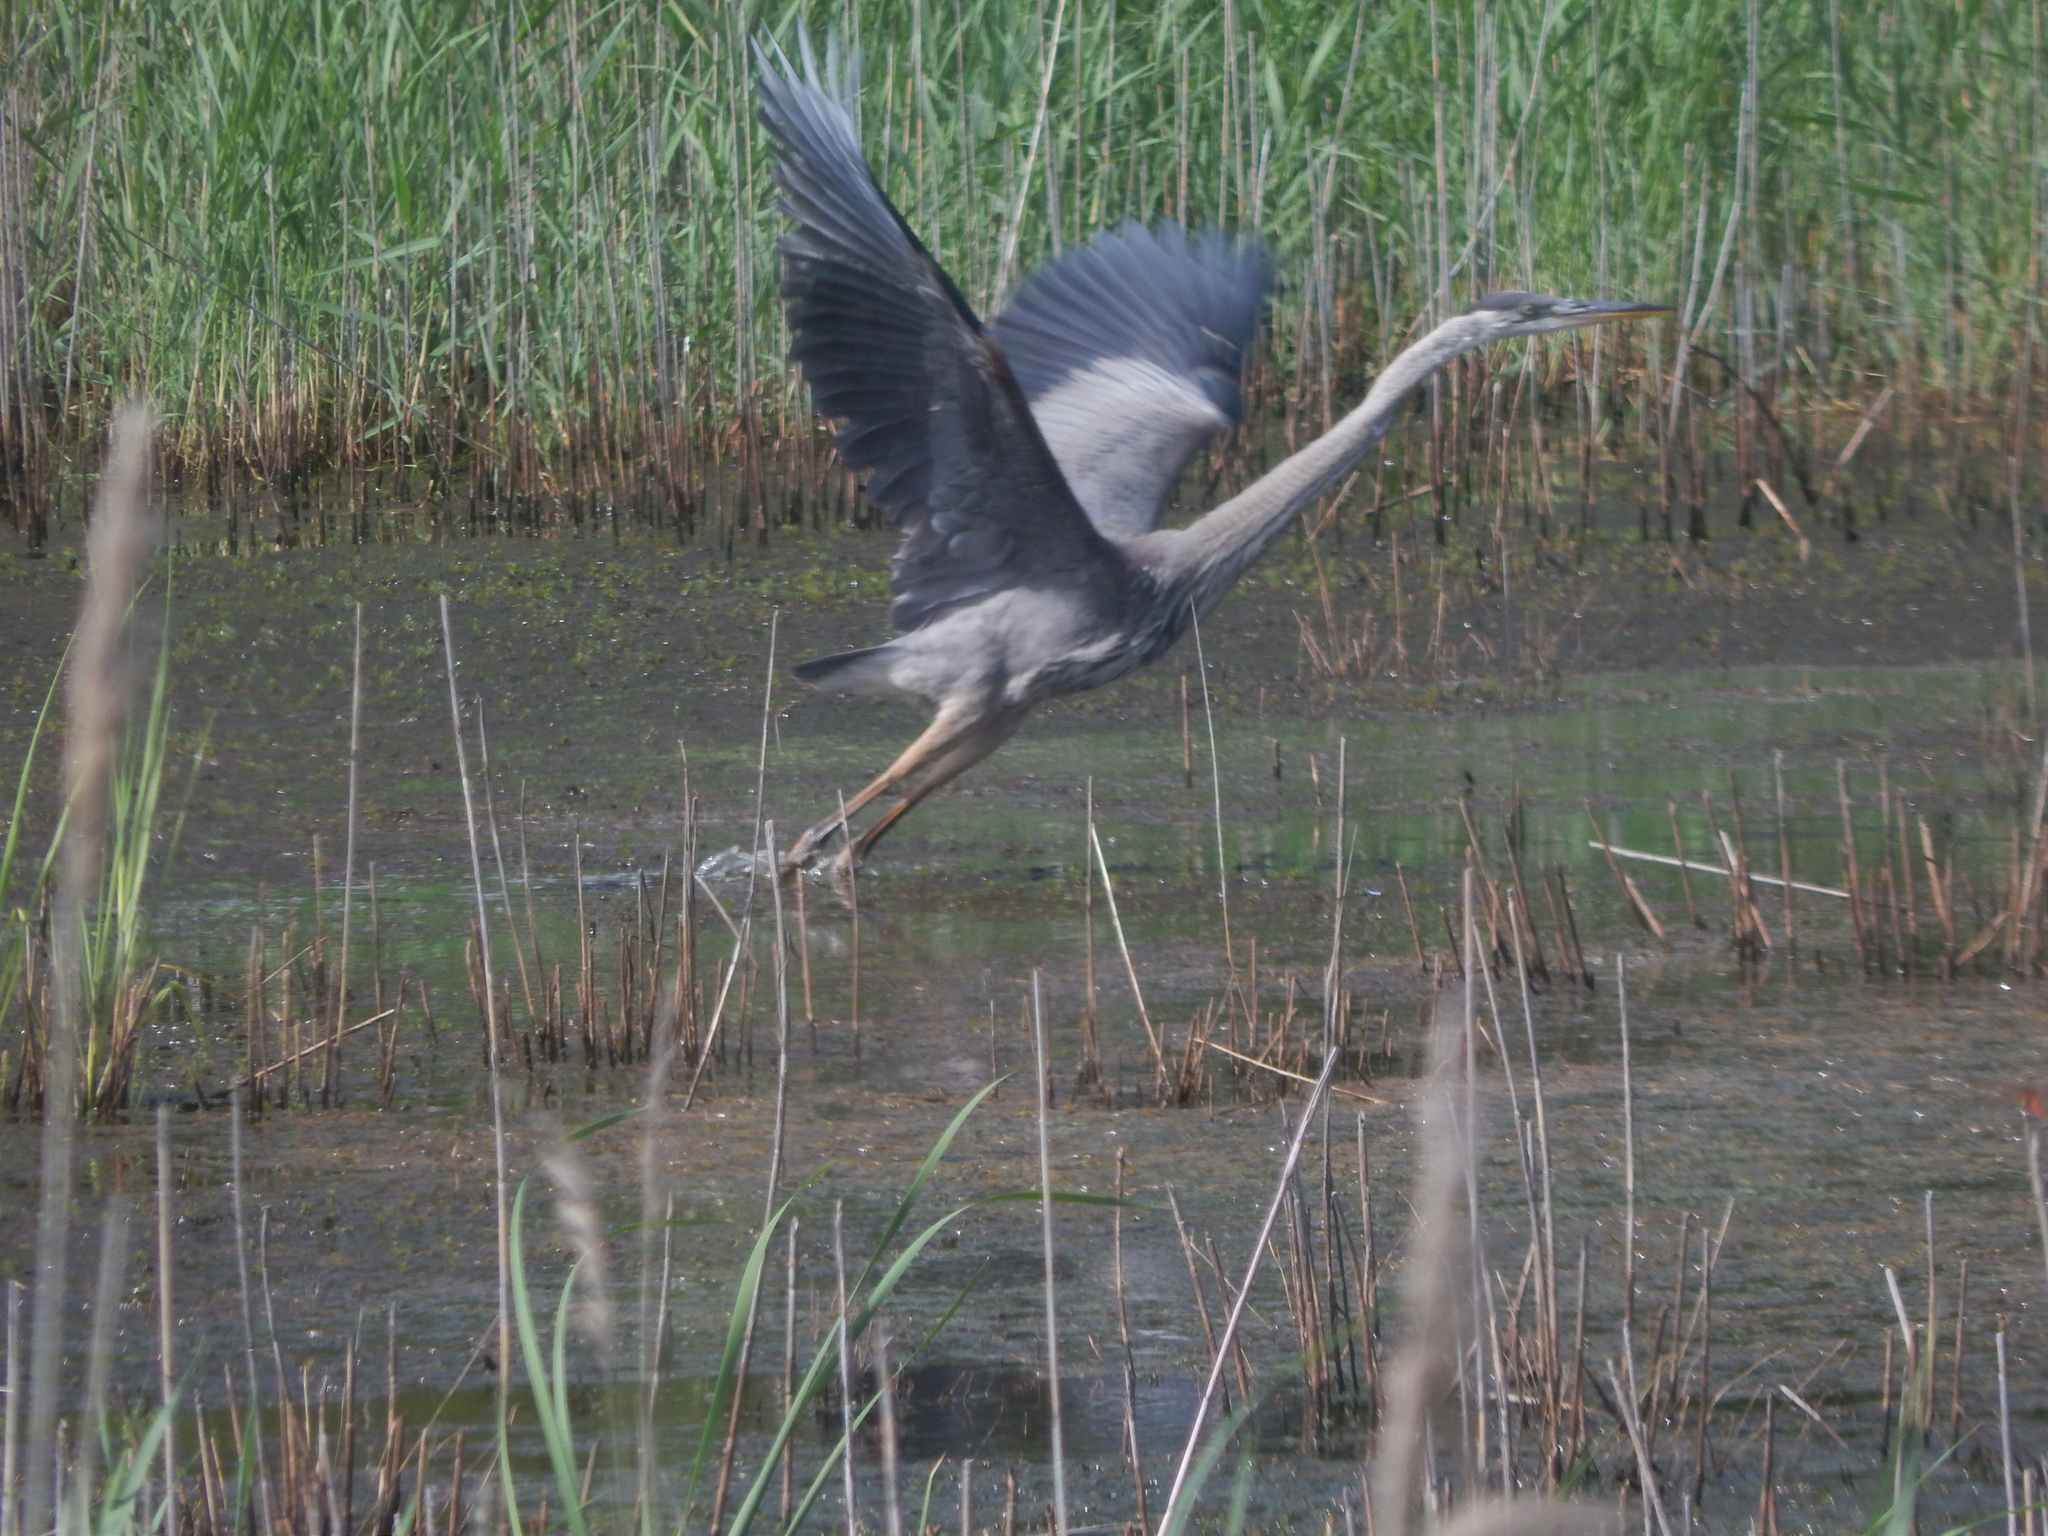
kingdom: Animalia
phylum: Chordata
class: Aves
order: Pelecaniformes
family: Ardeidae
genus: Ardea
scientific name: Ardea herodias
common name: Great blue heron
